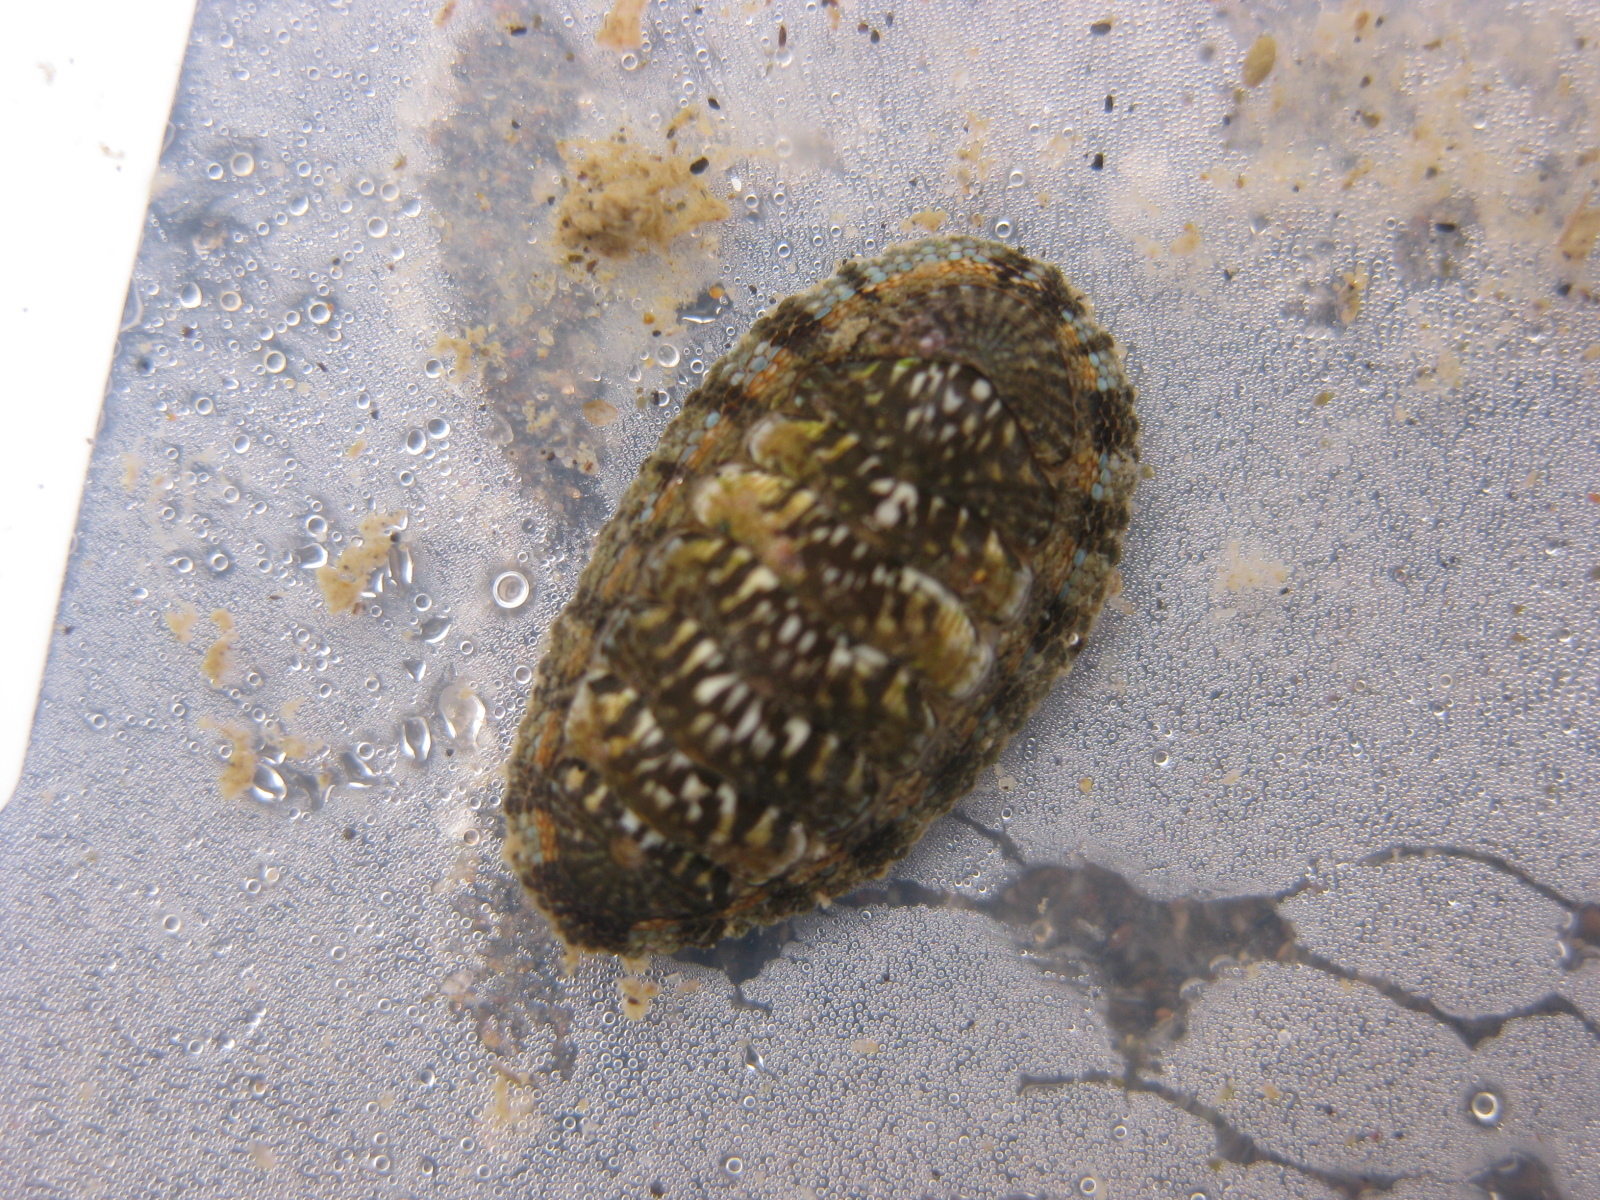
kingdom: Animalia
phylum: Mollusca
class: Polyplacophora
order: Chitonida
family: Chitonidae
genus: Sypharochiton
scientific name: Sypharochiton sinclairi
